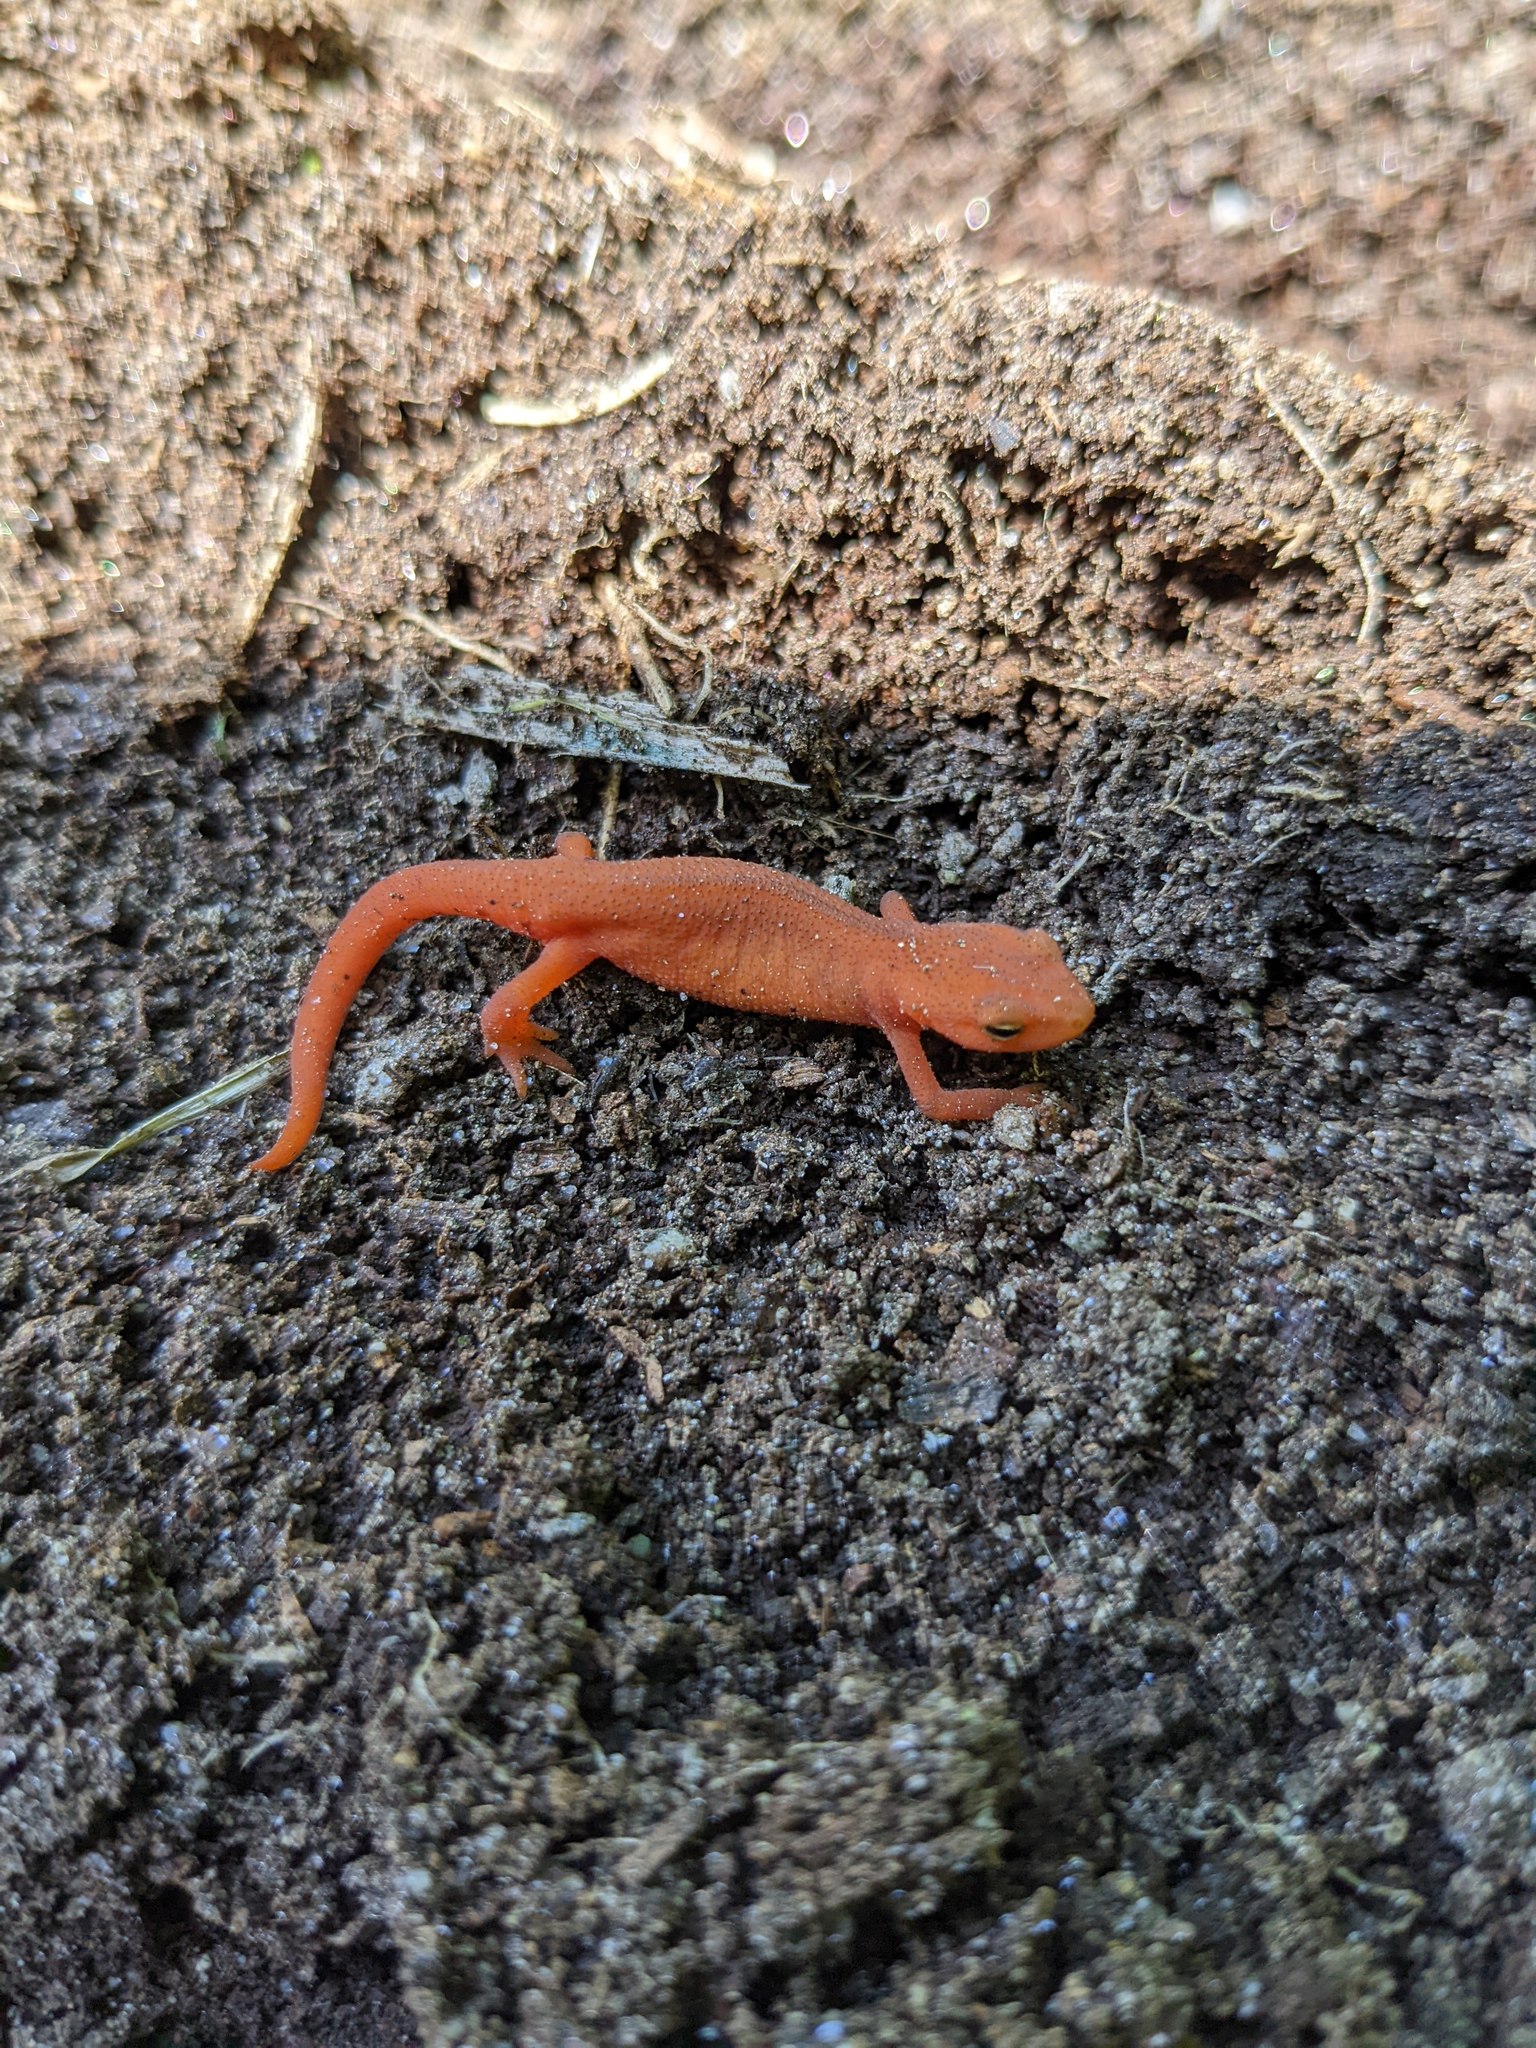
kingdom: Animalia
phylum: Chordata
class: Amphibia
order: Caudata
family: Salamandridae
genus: Notophthalmus
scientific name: Notophthalmus viridescens
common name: Eastern newt
